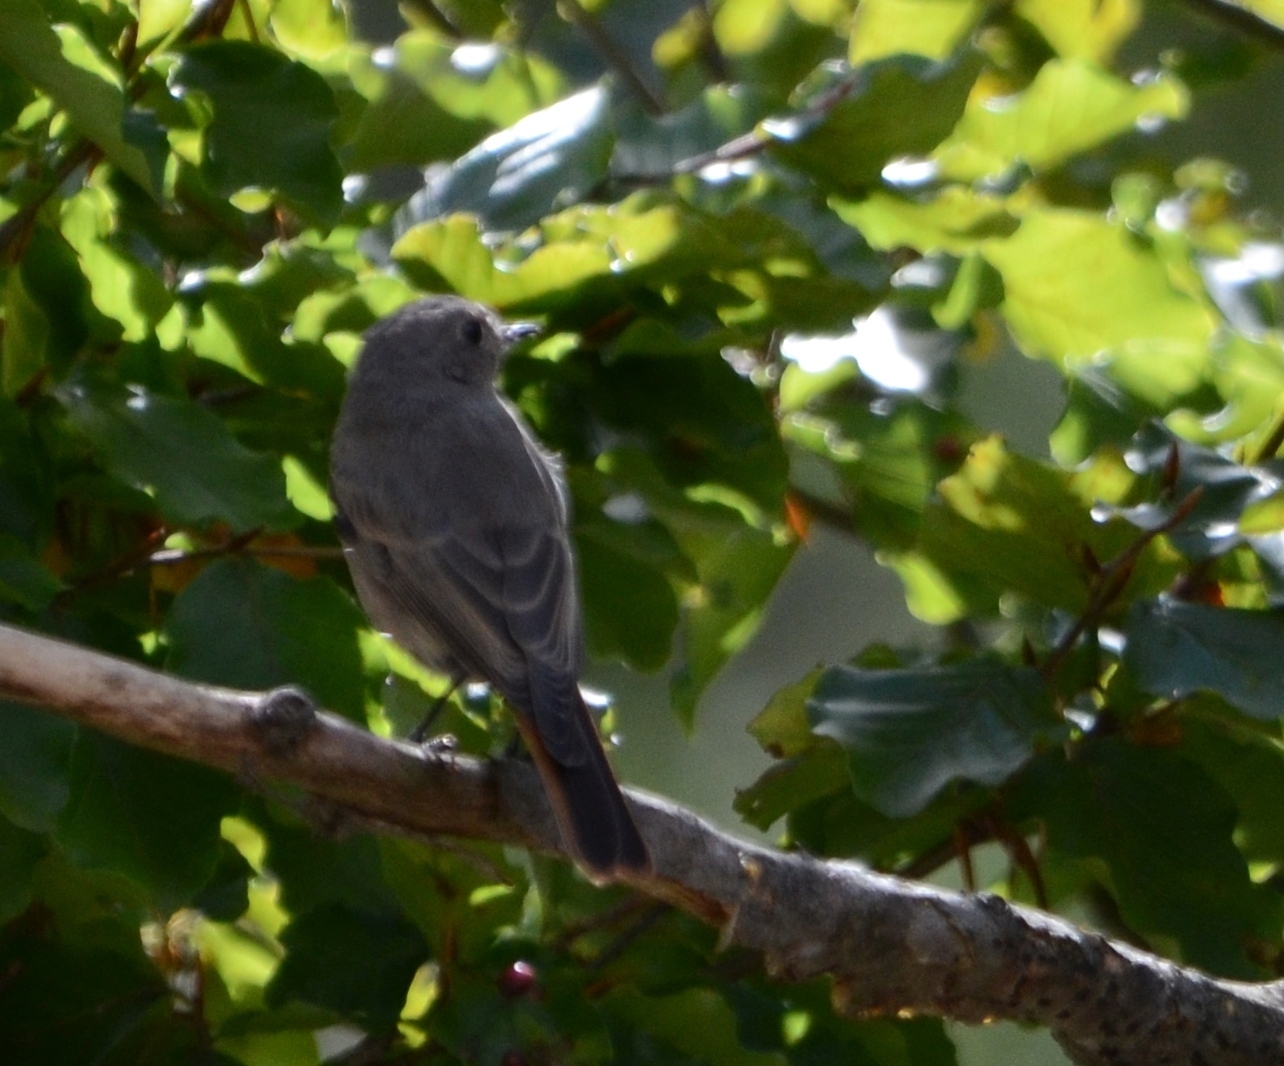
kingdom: Animalia
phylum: Chordata
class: Aves
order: Passeriformes
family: Muscicapidae
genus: Phoenicurus
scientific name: Phoenicurus ochruros
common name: Black redstart
